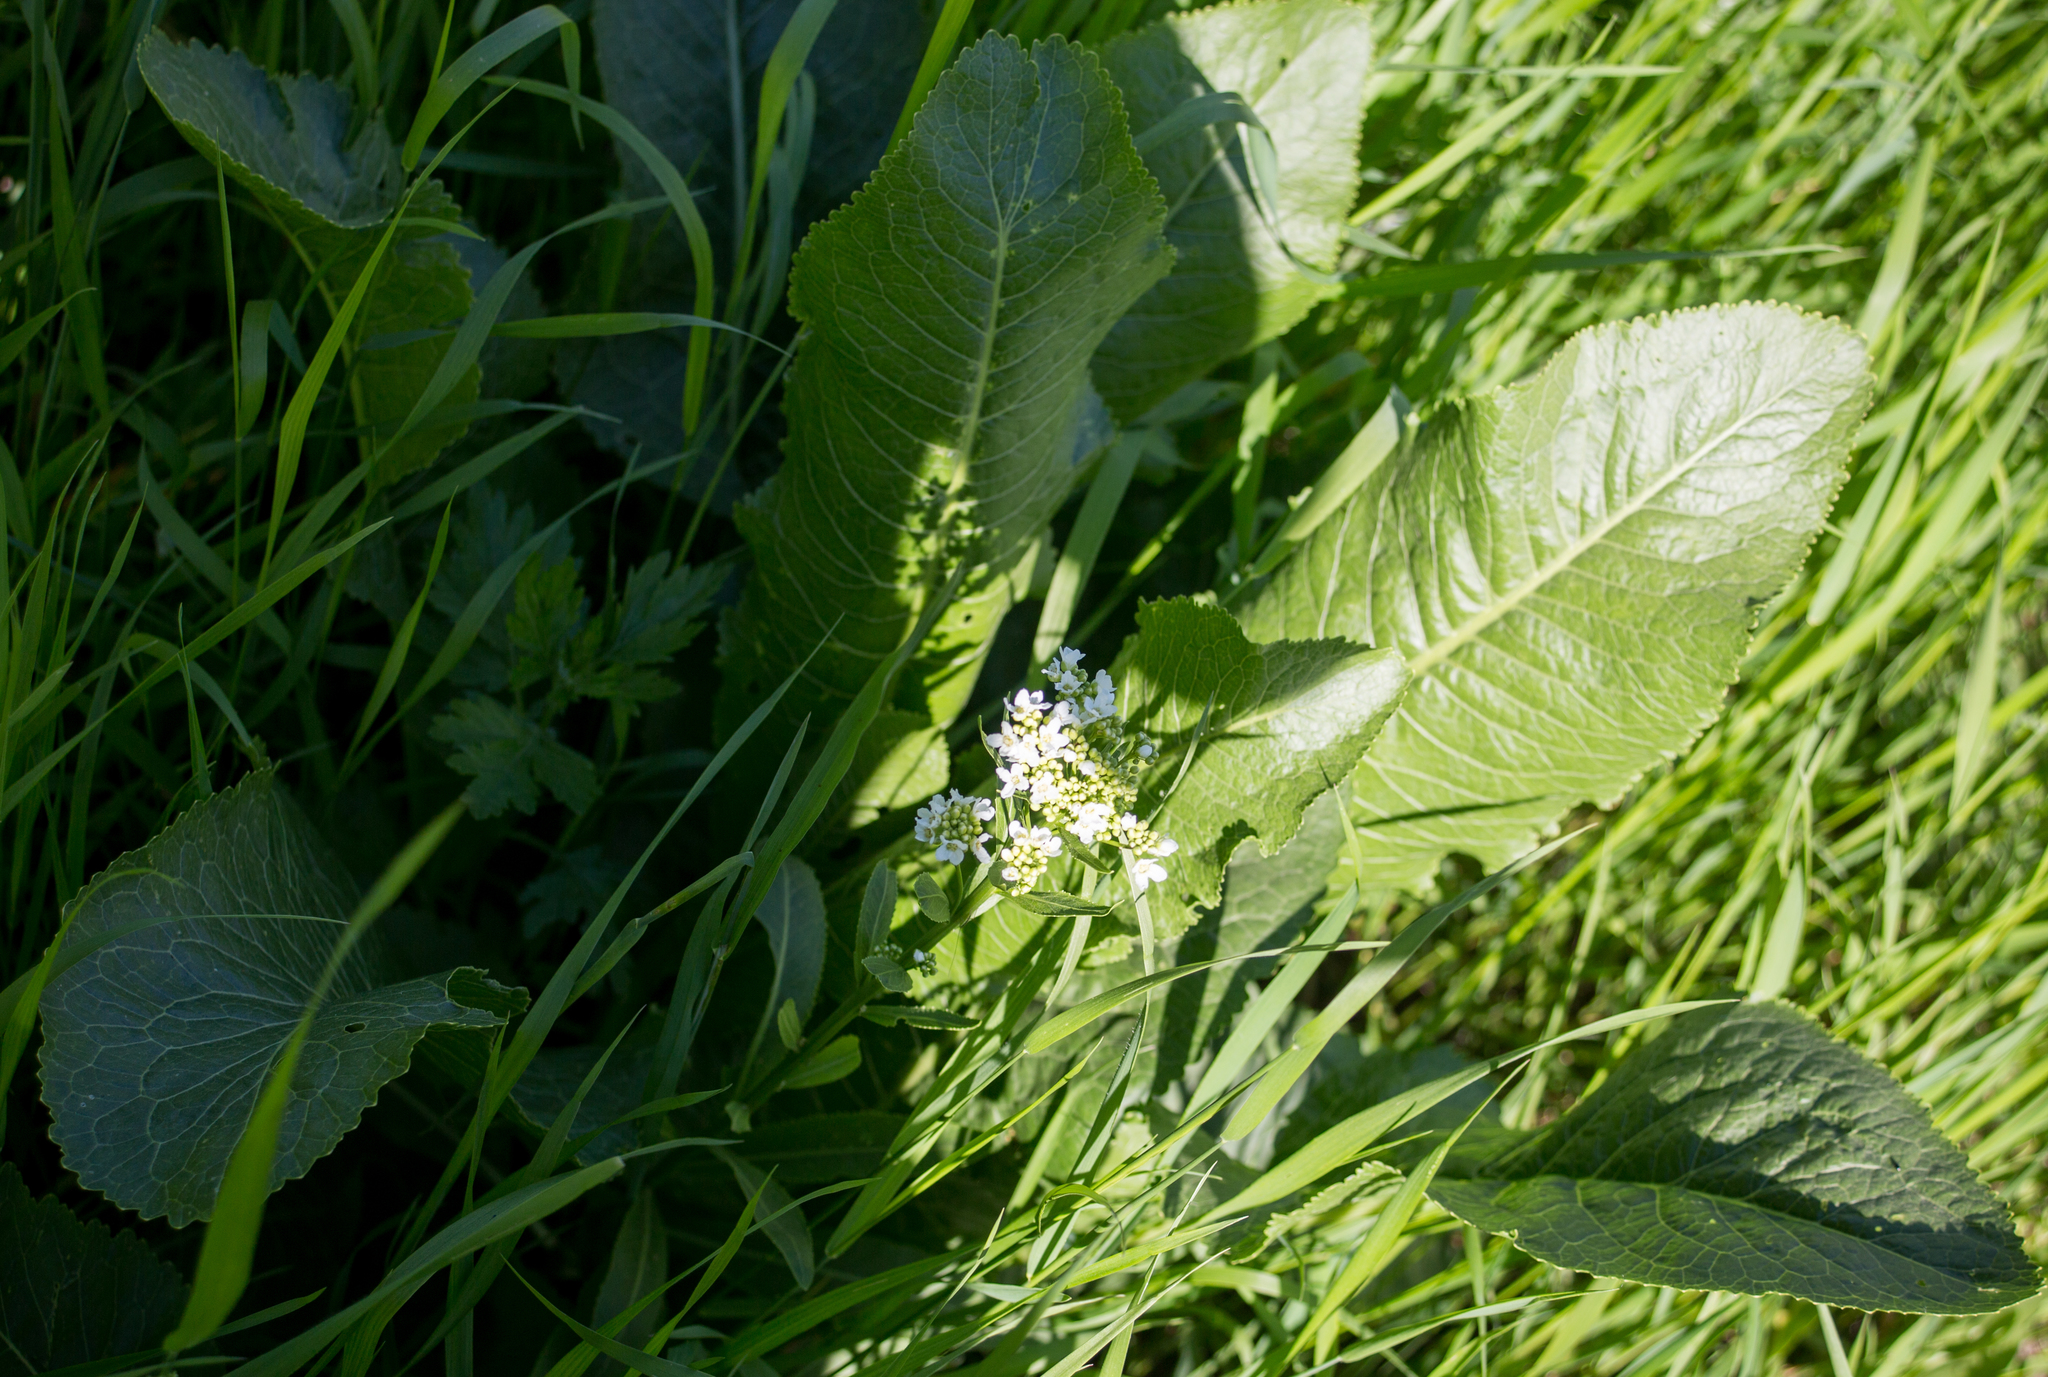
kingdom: Plantae
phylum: Tracheophyta
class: Magnoliopsida
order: Brassicales
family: Brassicaceae
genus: Armoracia
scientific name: Armoracia rusticana
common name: Horseradish
